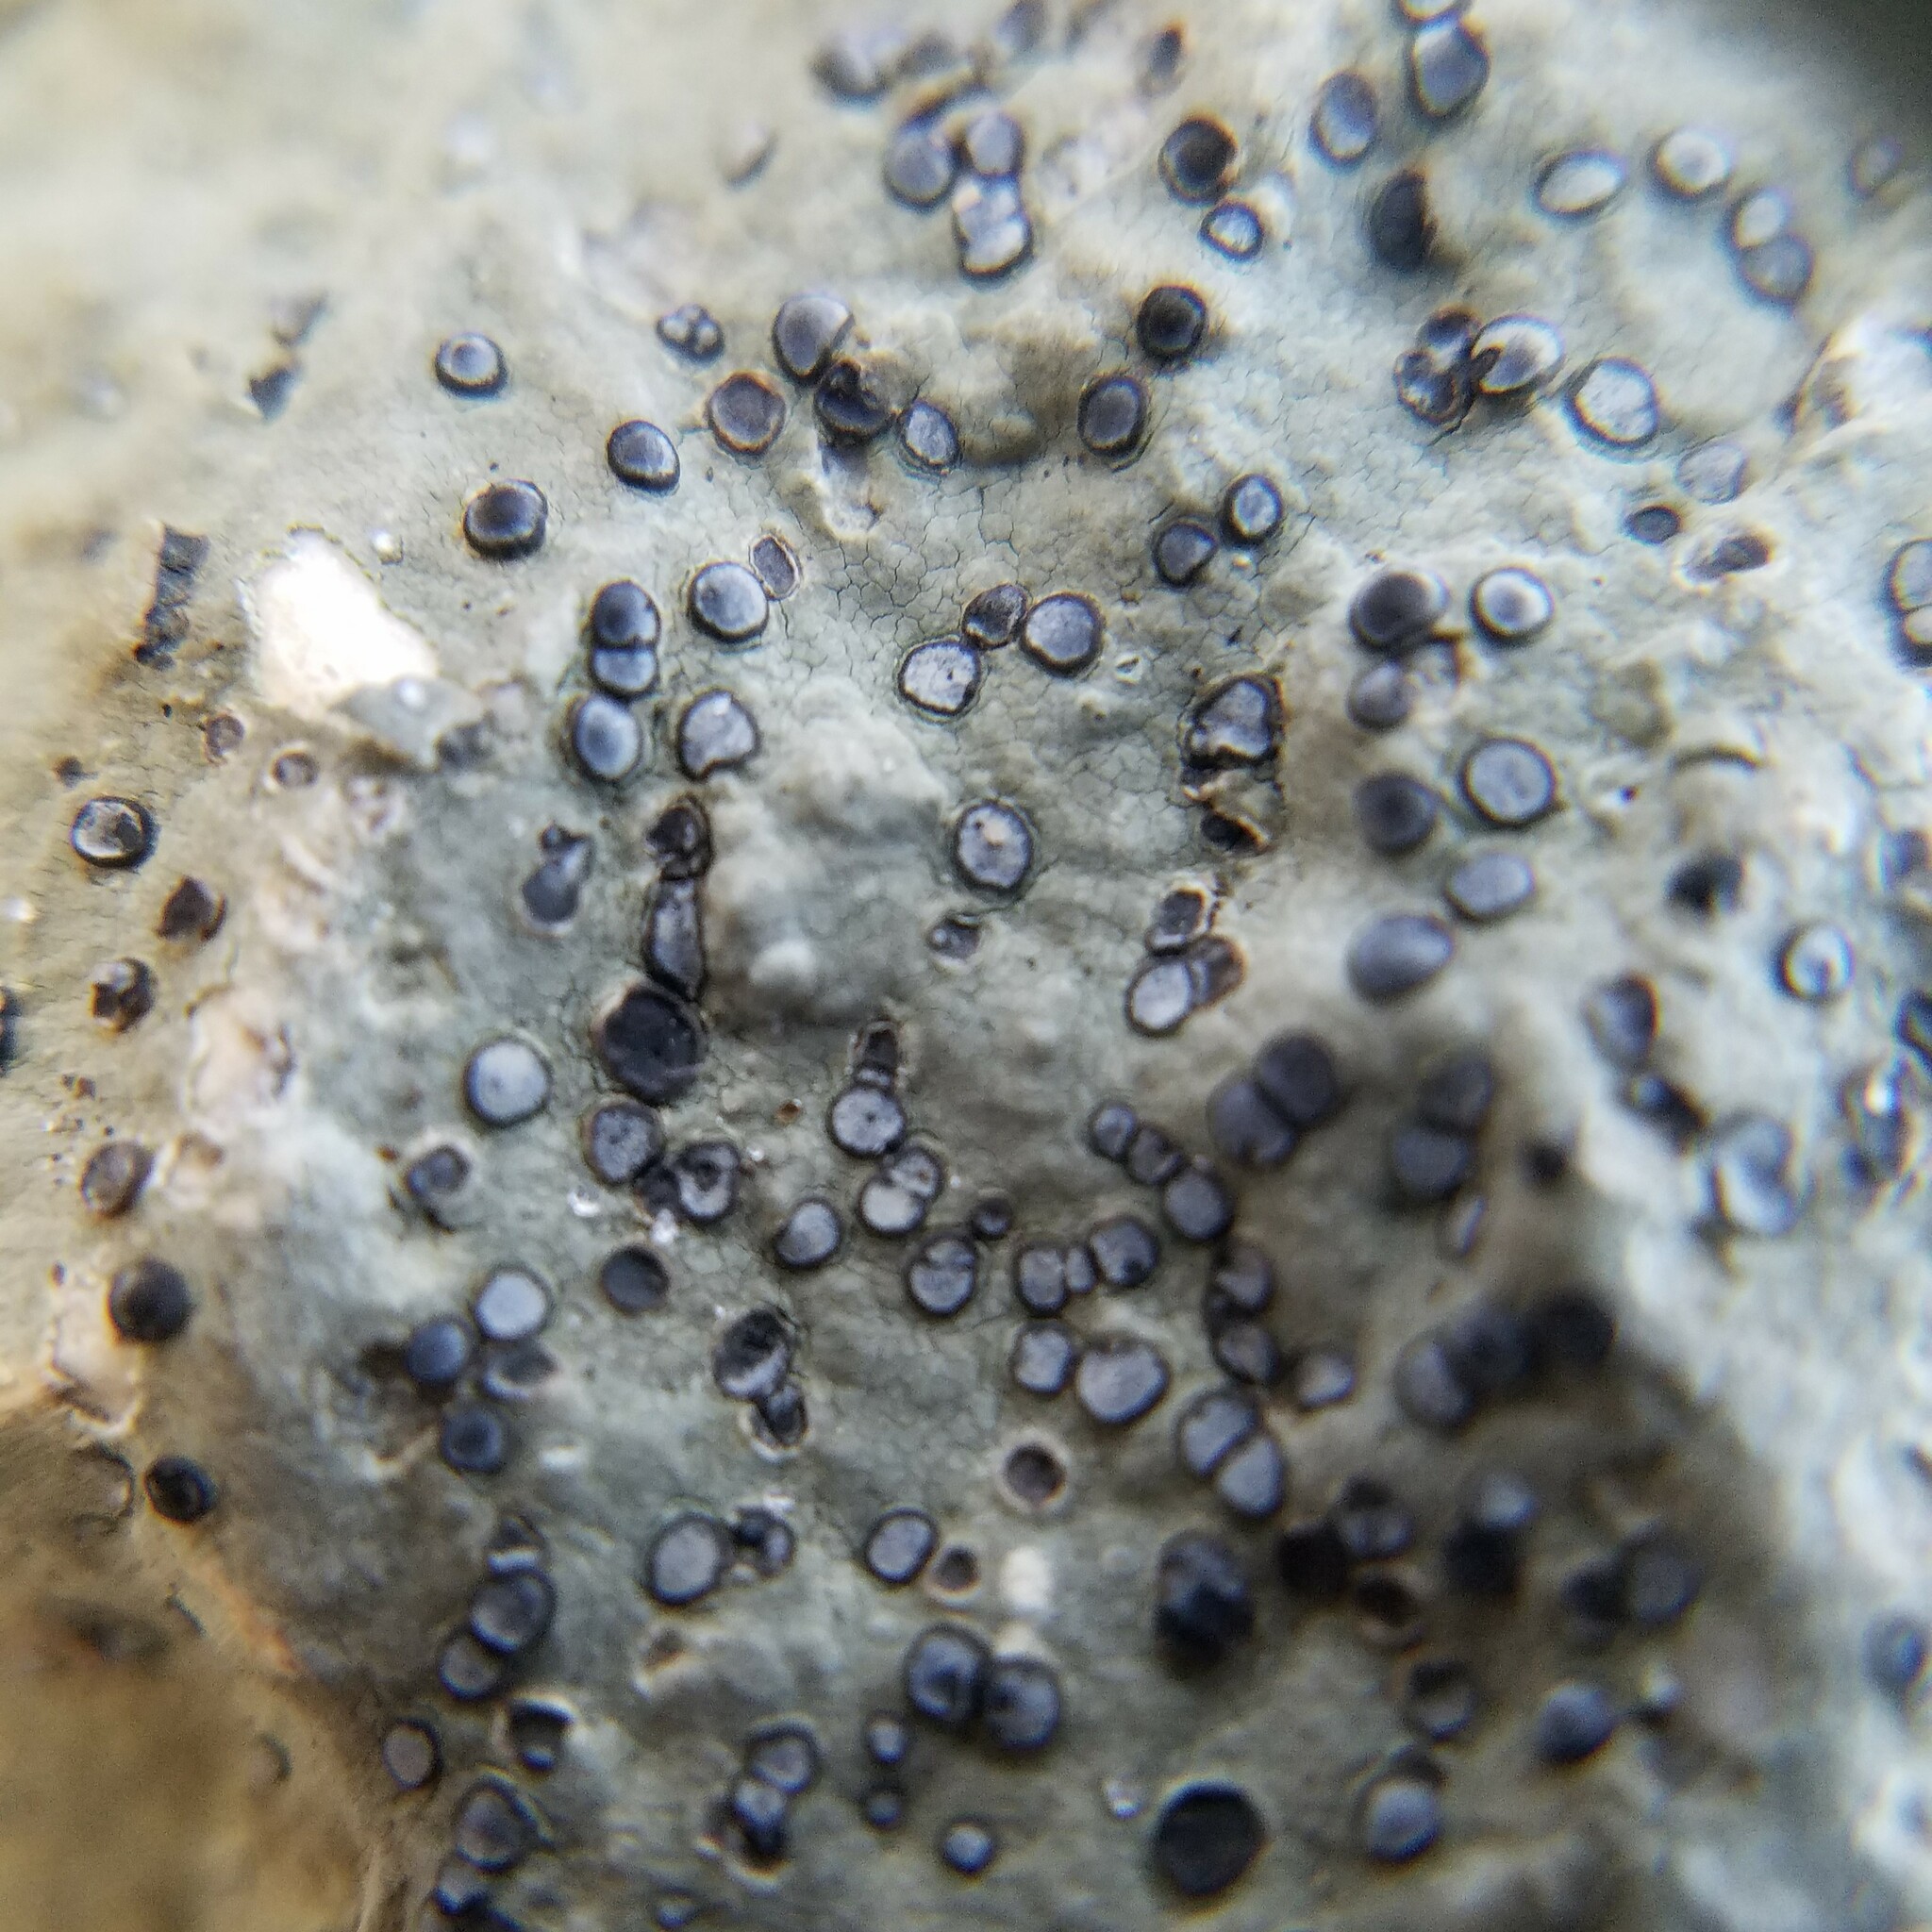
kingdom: Fungi
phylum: Ascomycota
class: Lecanoromycetes
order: Lecideales
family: Lecideaceae
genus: Porpidia
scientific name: Porpidia albocaerulescens
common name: Smokey-eyed boulder lichen
